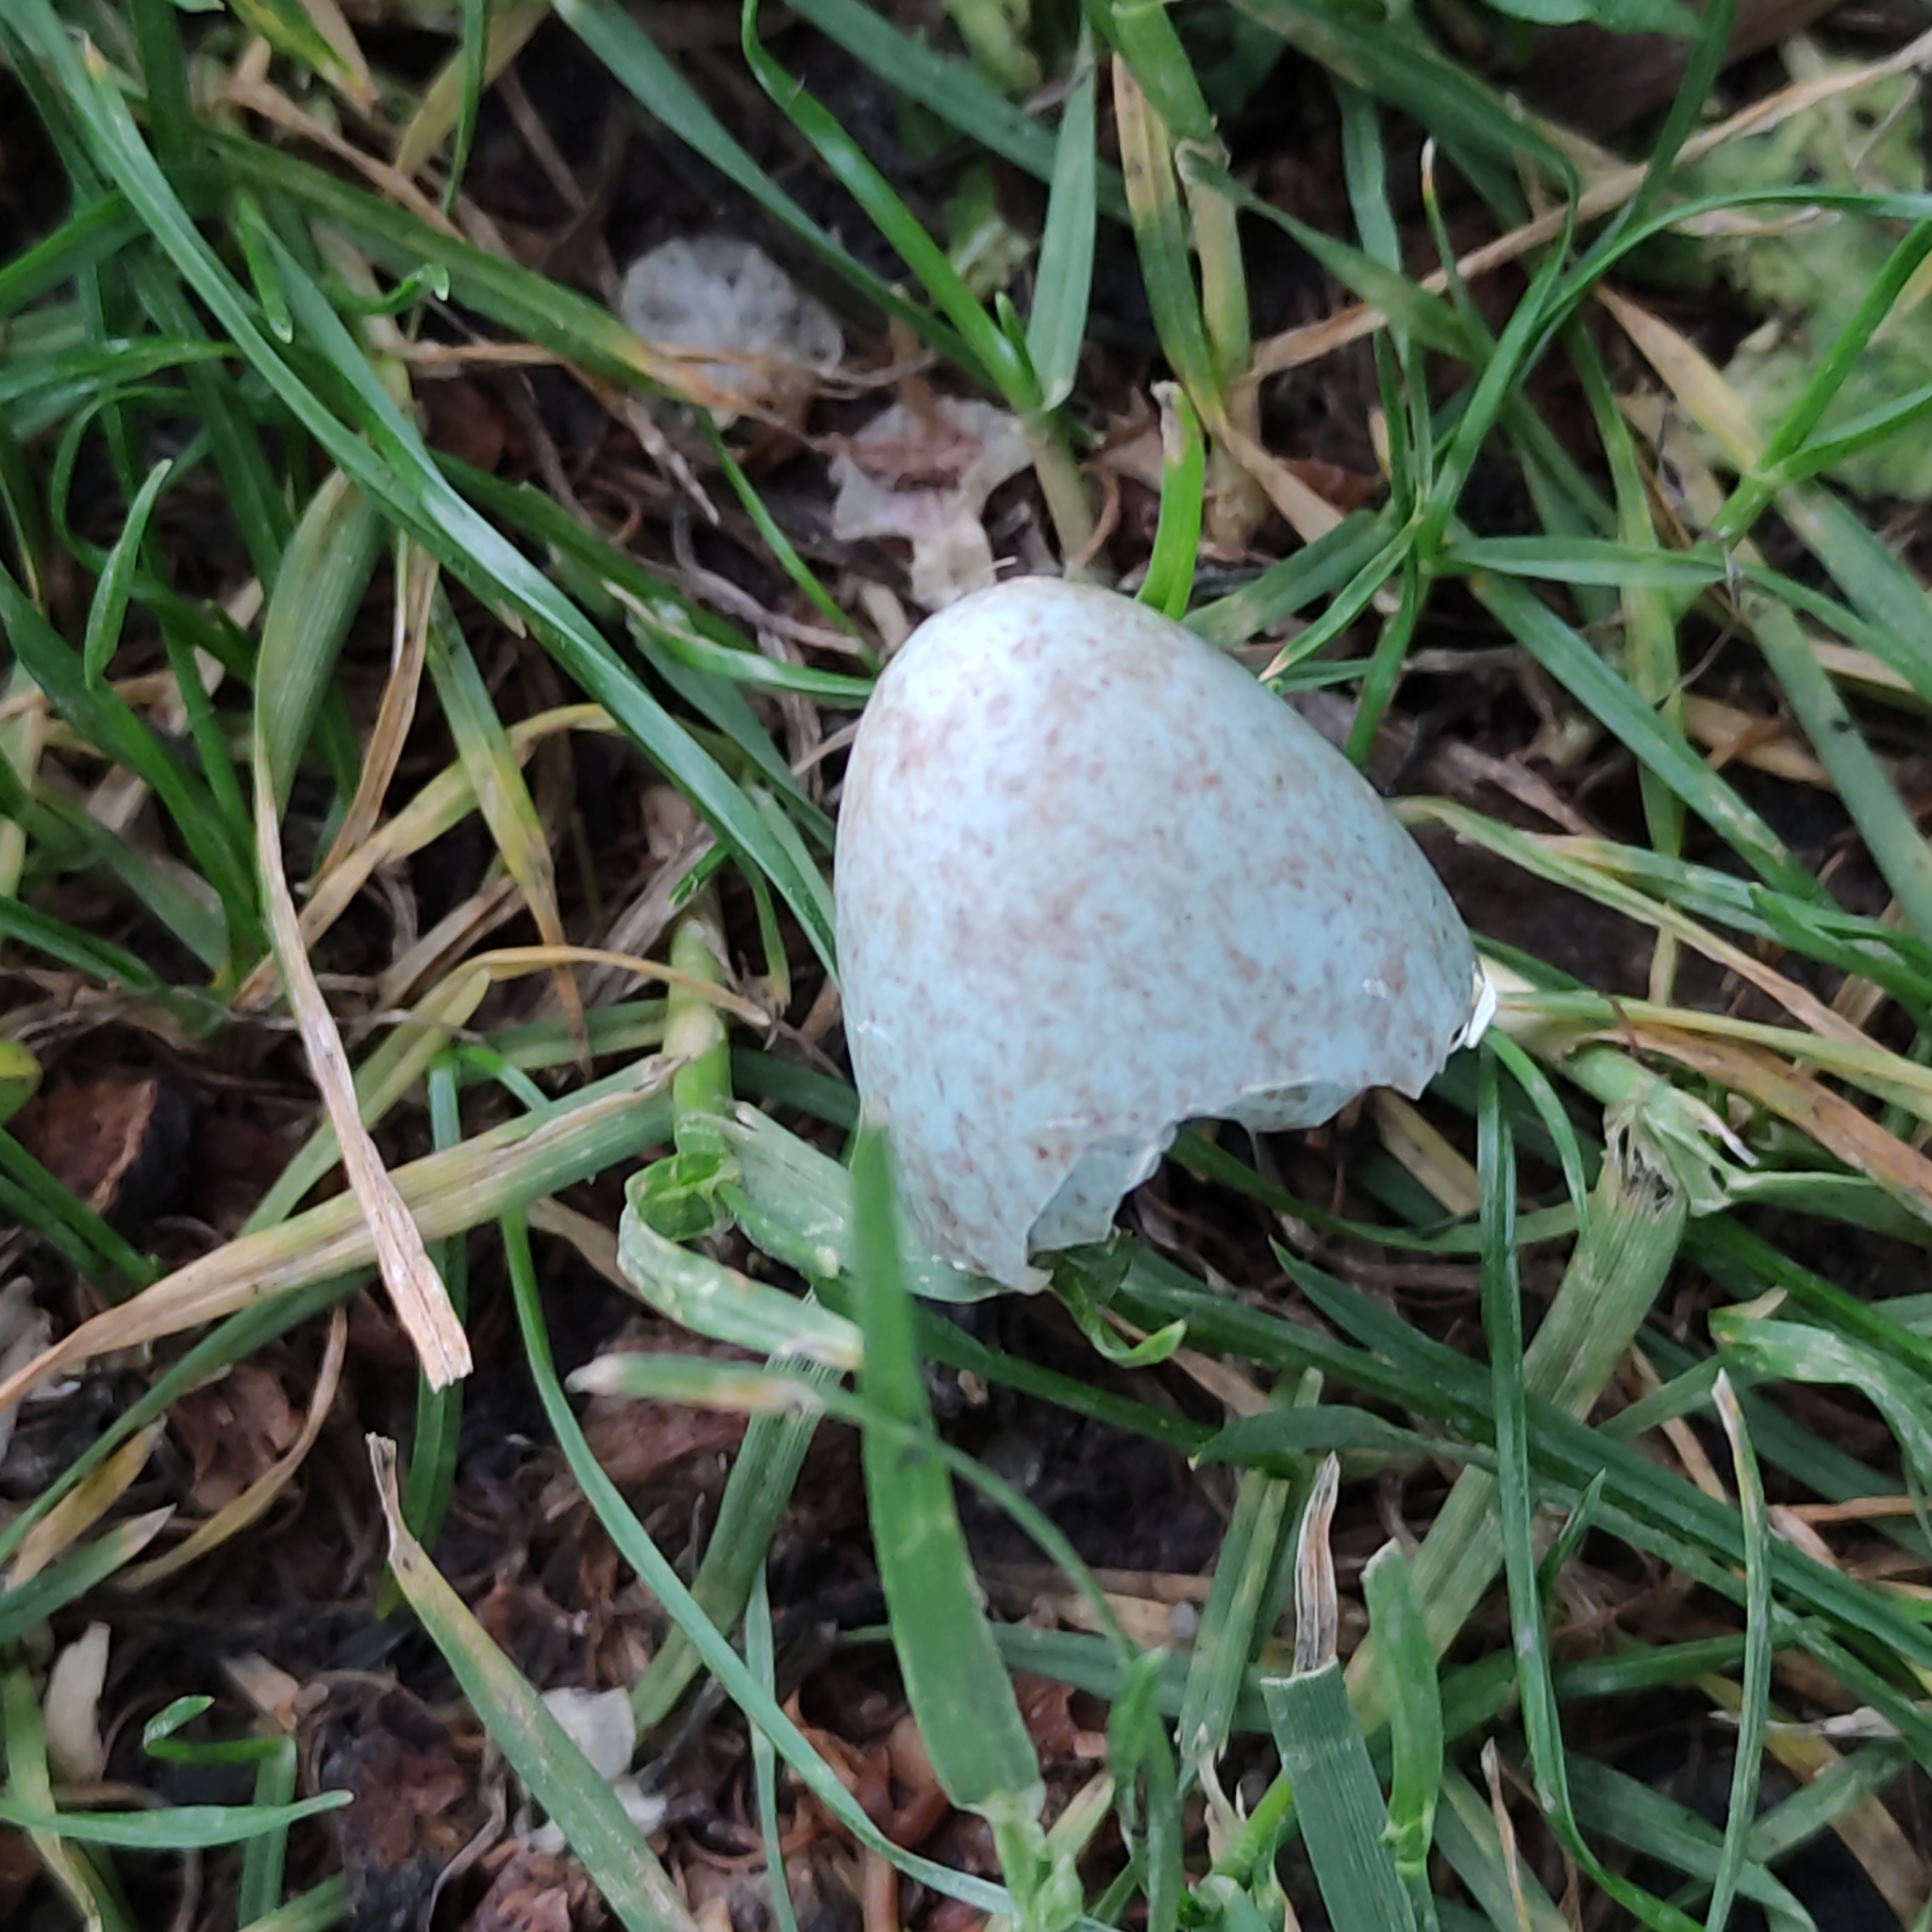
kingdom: Animalia
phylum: Chordata
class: Aves
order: Passeriformes
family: Turdidae
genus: Turdus
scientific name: Turdus merula
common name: Common blackbird
